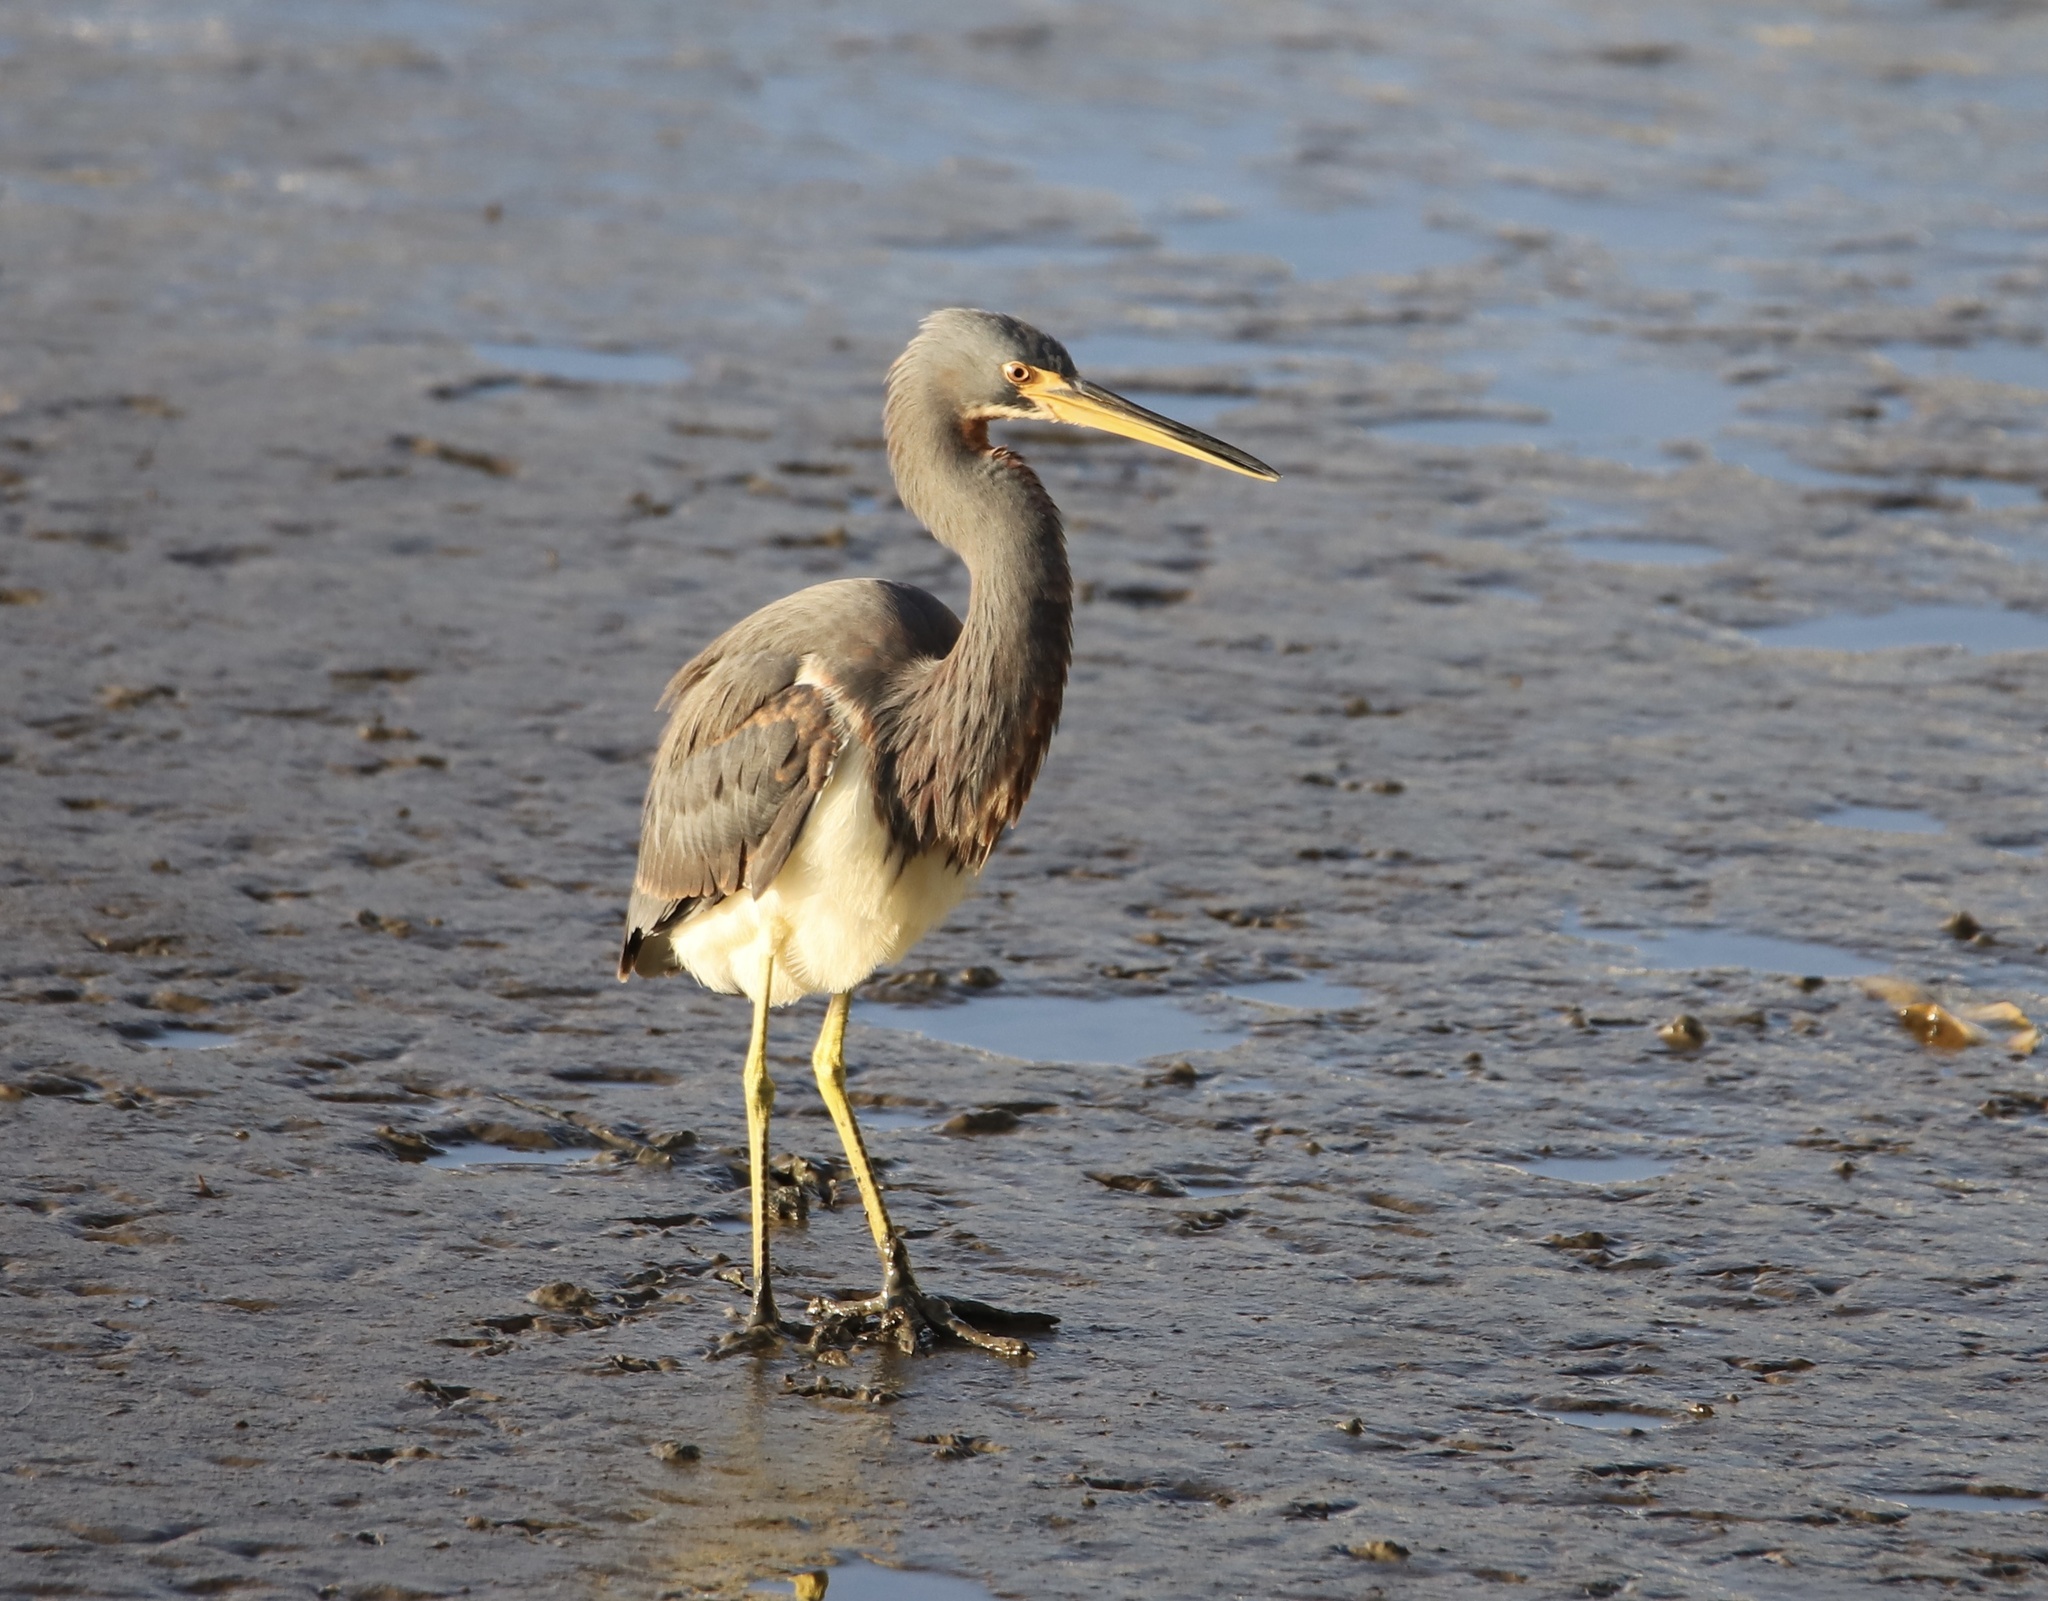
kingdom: Animalia
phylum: Chordata
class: Aves
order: Pelecaniformes
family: Ardeidae
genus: Egretta
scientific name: Egretta tricolor
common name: Tricolored heron
